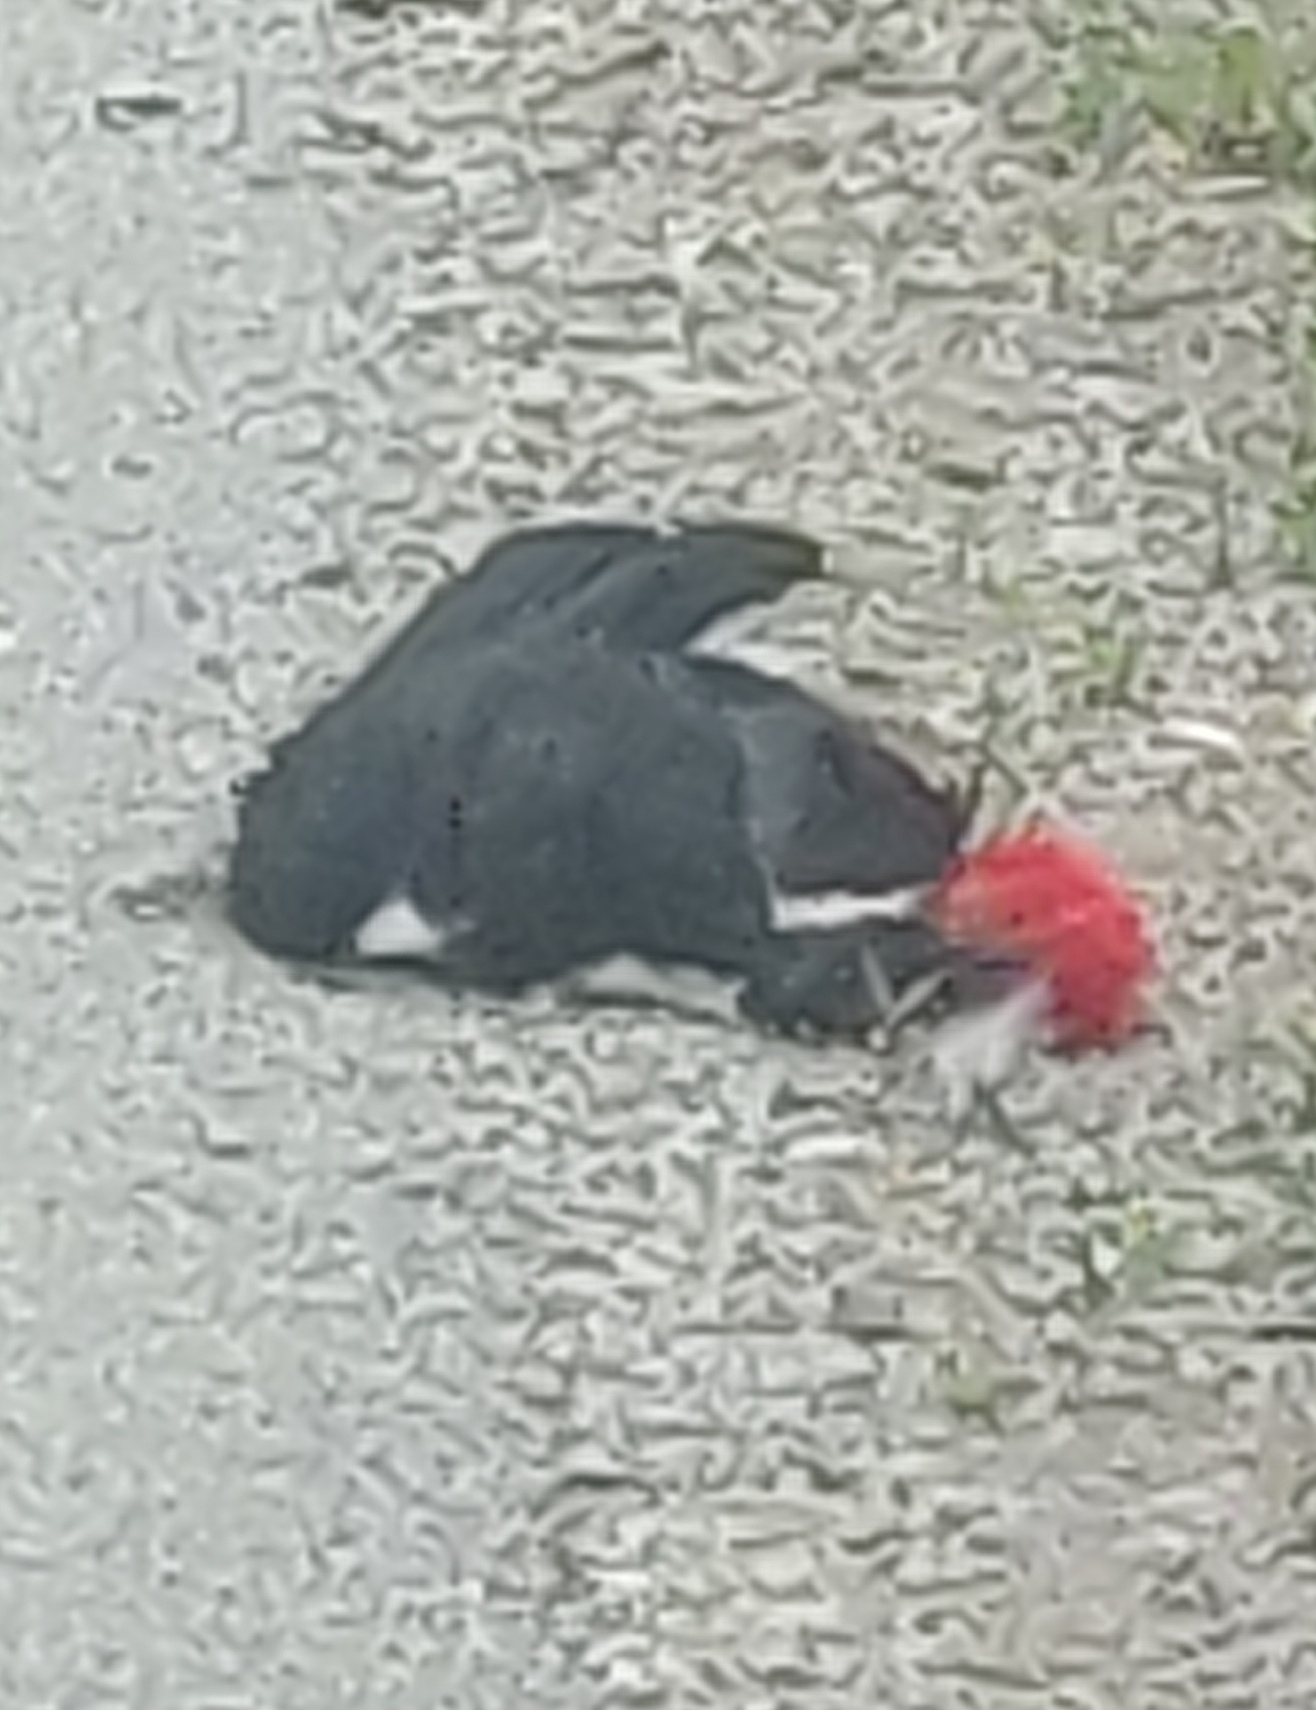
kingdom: Animalia
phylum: Chordata
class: Aves
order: Piciformes
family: Picidae
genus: Dryocopus
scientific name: Dryocopus pileatus
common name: Pileated woodpecker
